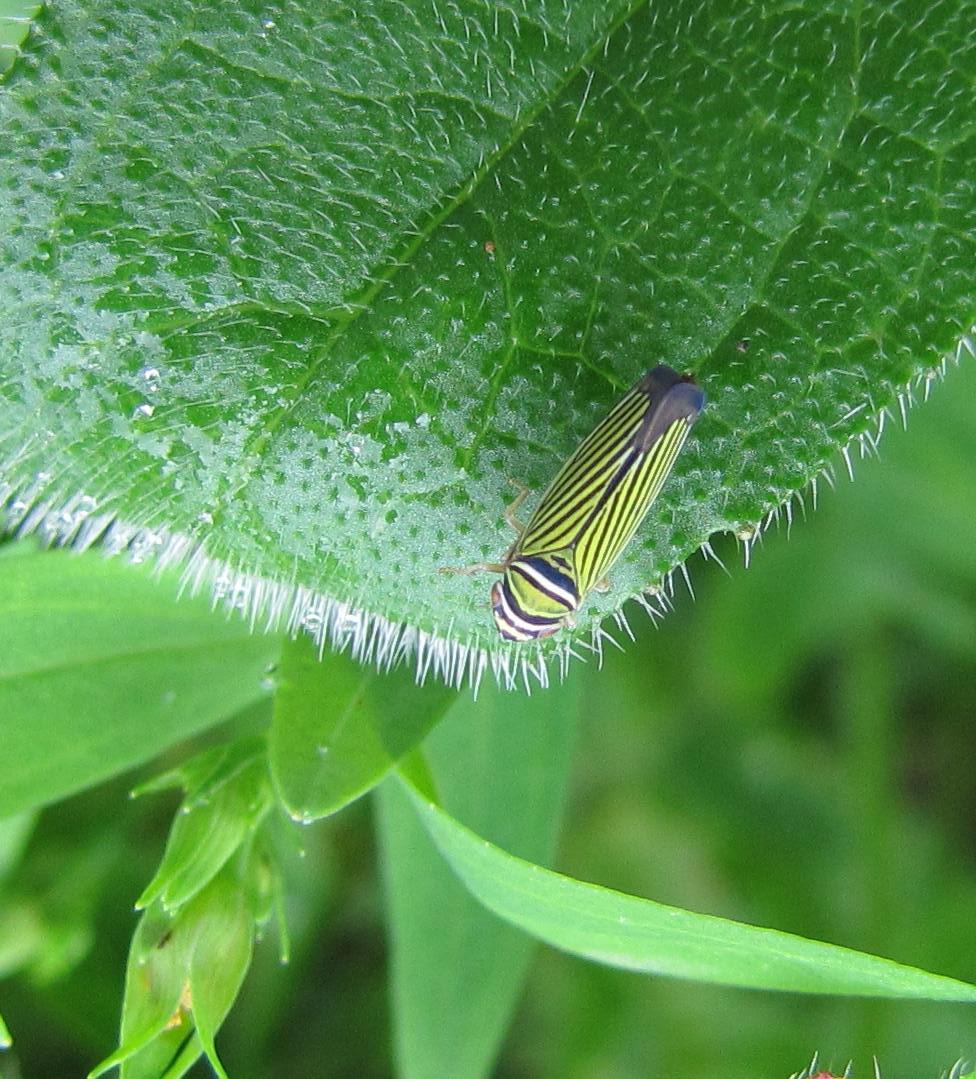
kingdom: Animalia
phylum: Arthropoda
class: Insecta
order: Hemiptera
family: Cicadellidae
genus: Tylozygus
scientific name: Tylozygus bifidus
